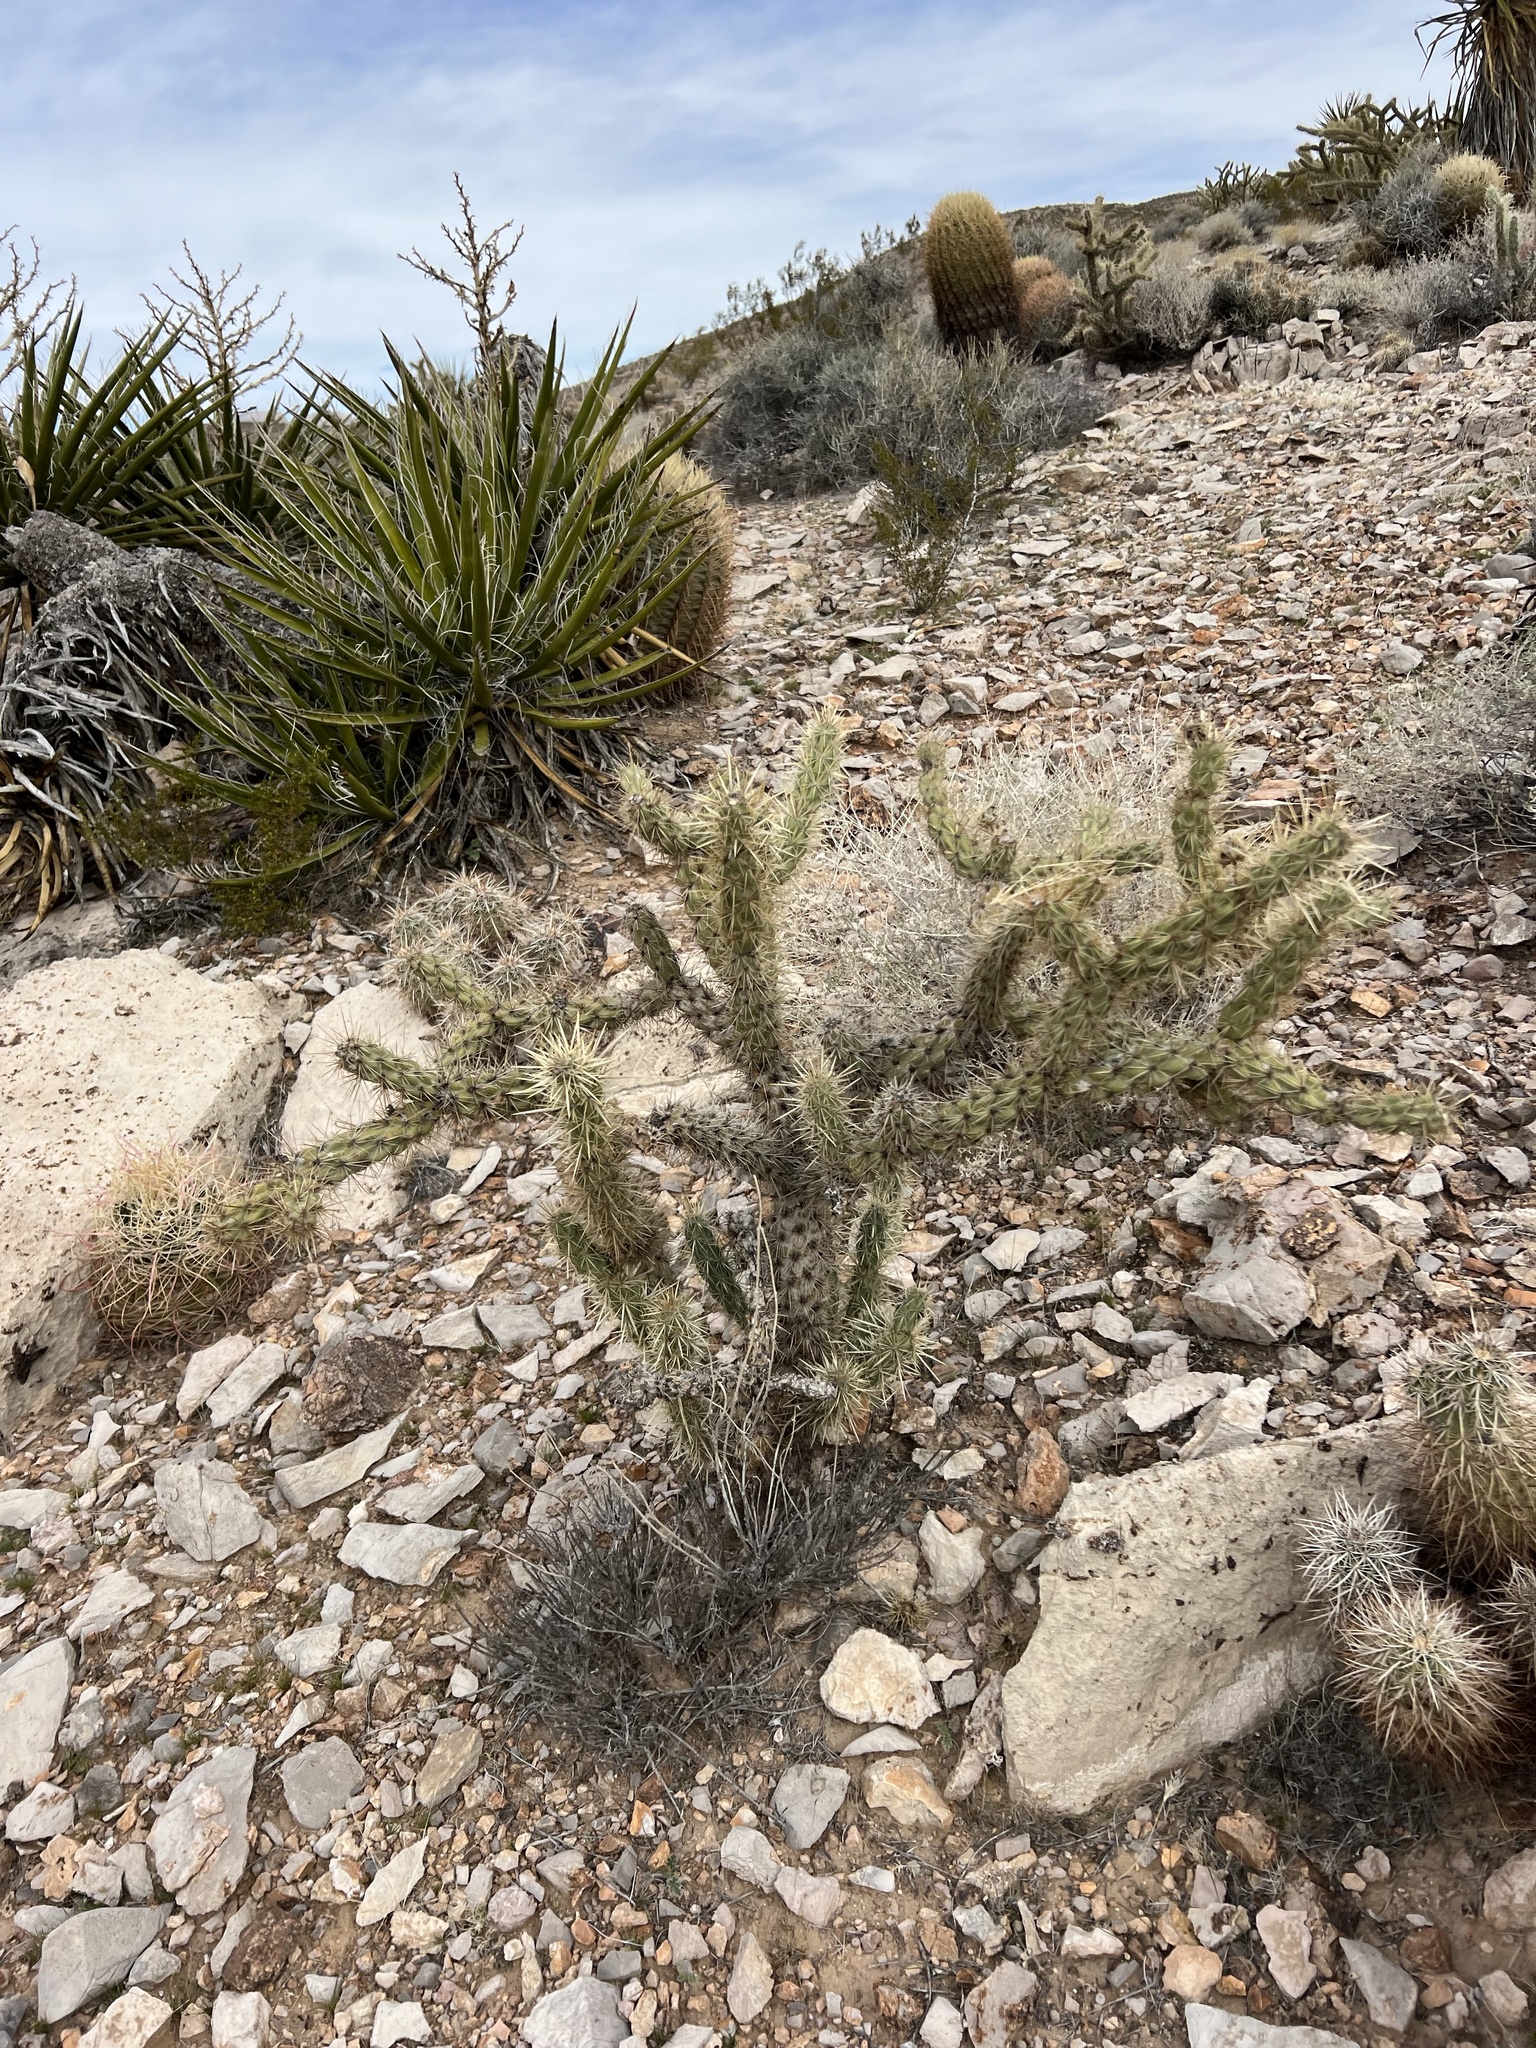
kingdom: Plantae
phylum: Tracheophyta
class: Magnoliopsida
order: Caryophyllales
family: Cactaceae
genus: Cylindropuntia
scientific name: Cylindropuntia acanthocarpa
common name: Buckhorn cholla
